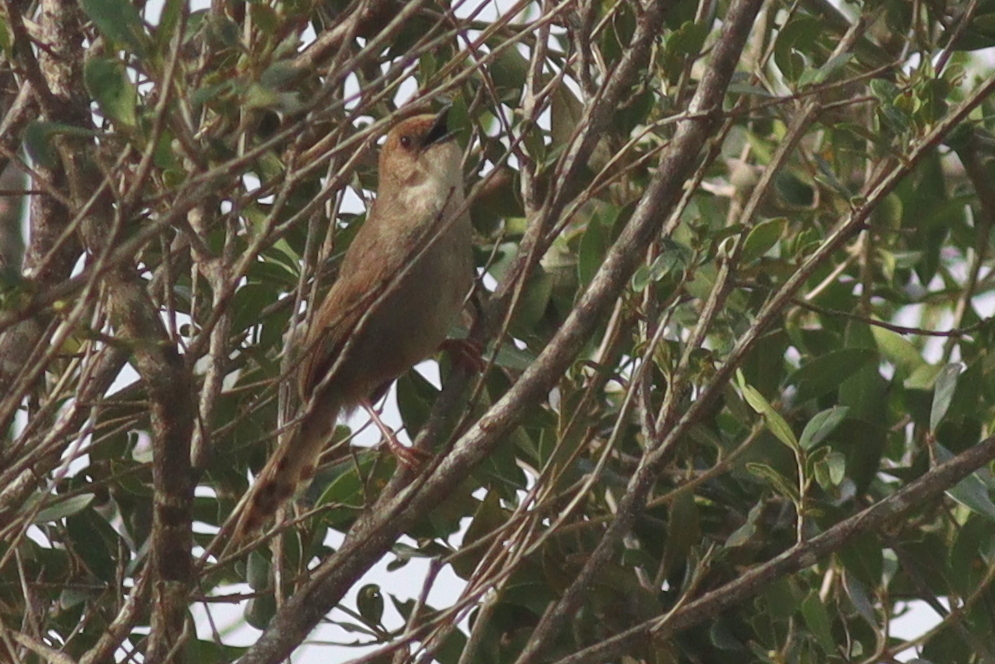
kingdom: Animalia
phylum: Chordata
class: Aves
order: Passeriformes
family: Cisticolidae
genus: Cisticola
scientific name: Cisticola hunteri
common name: Hunter's cisticola
